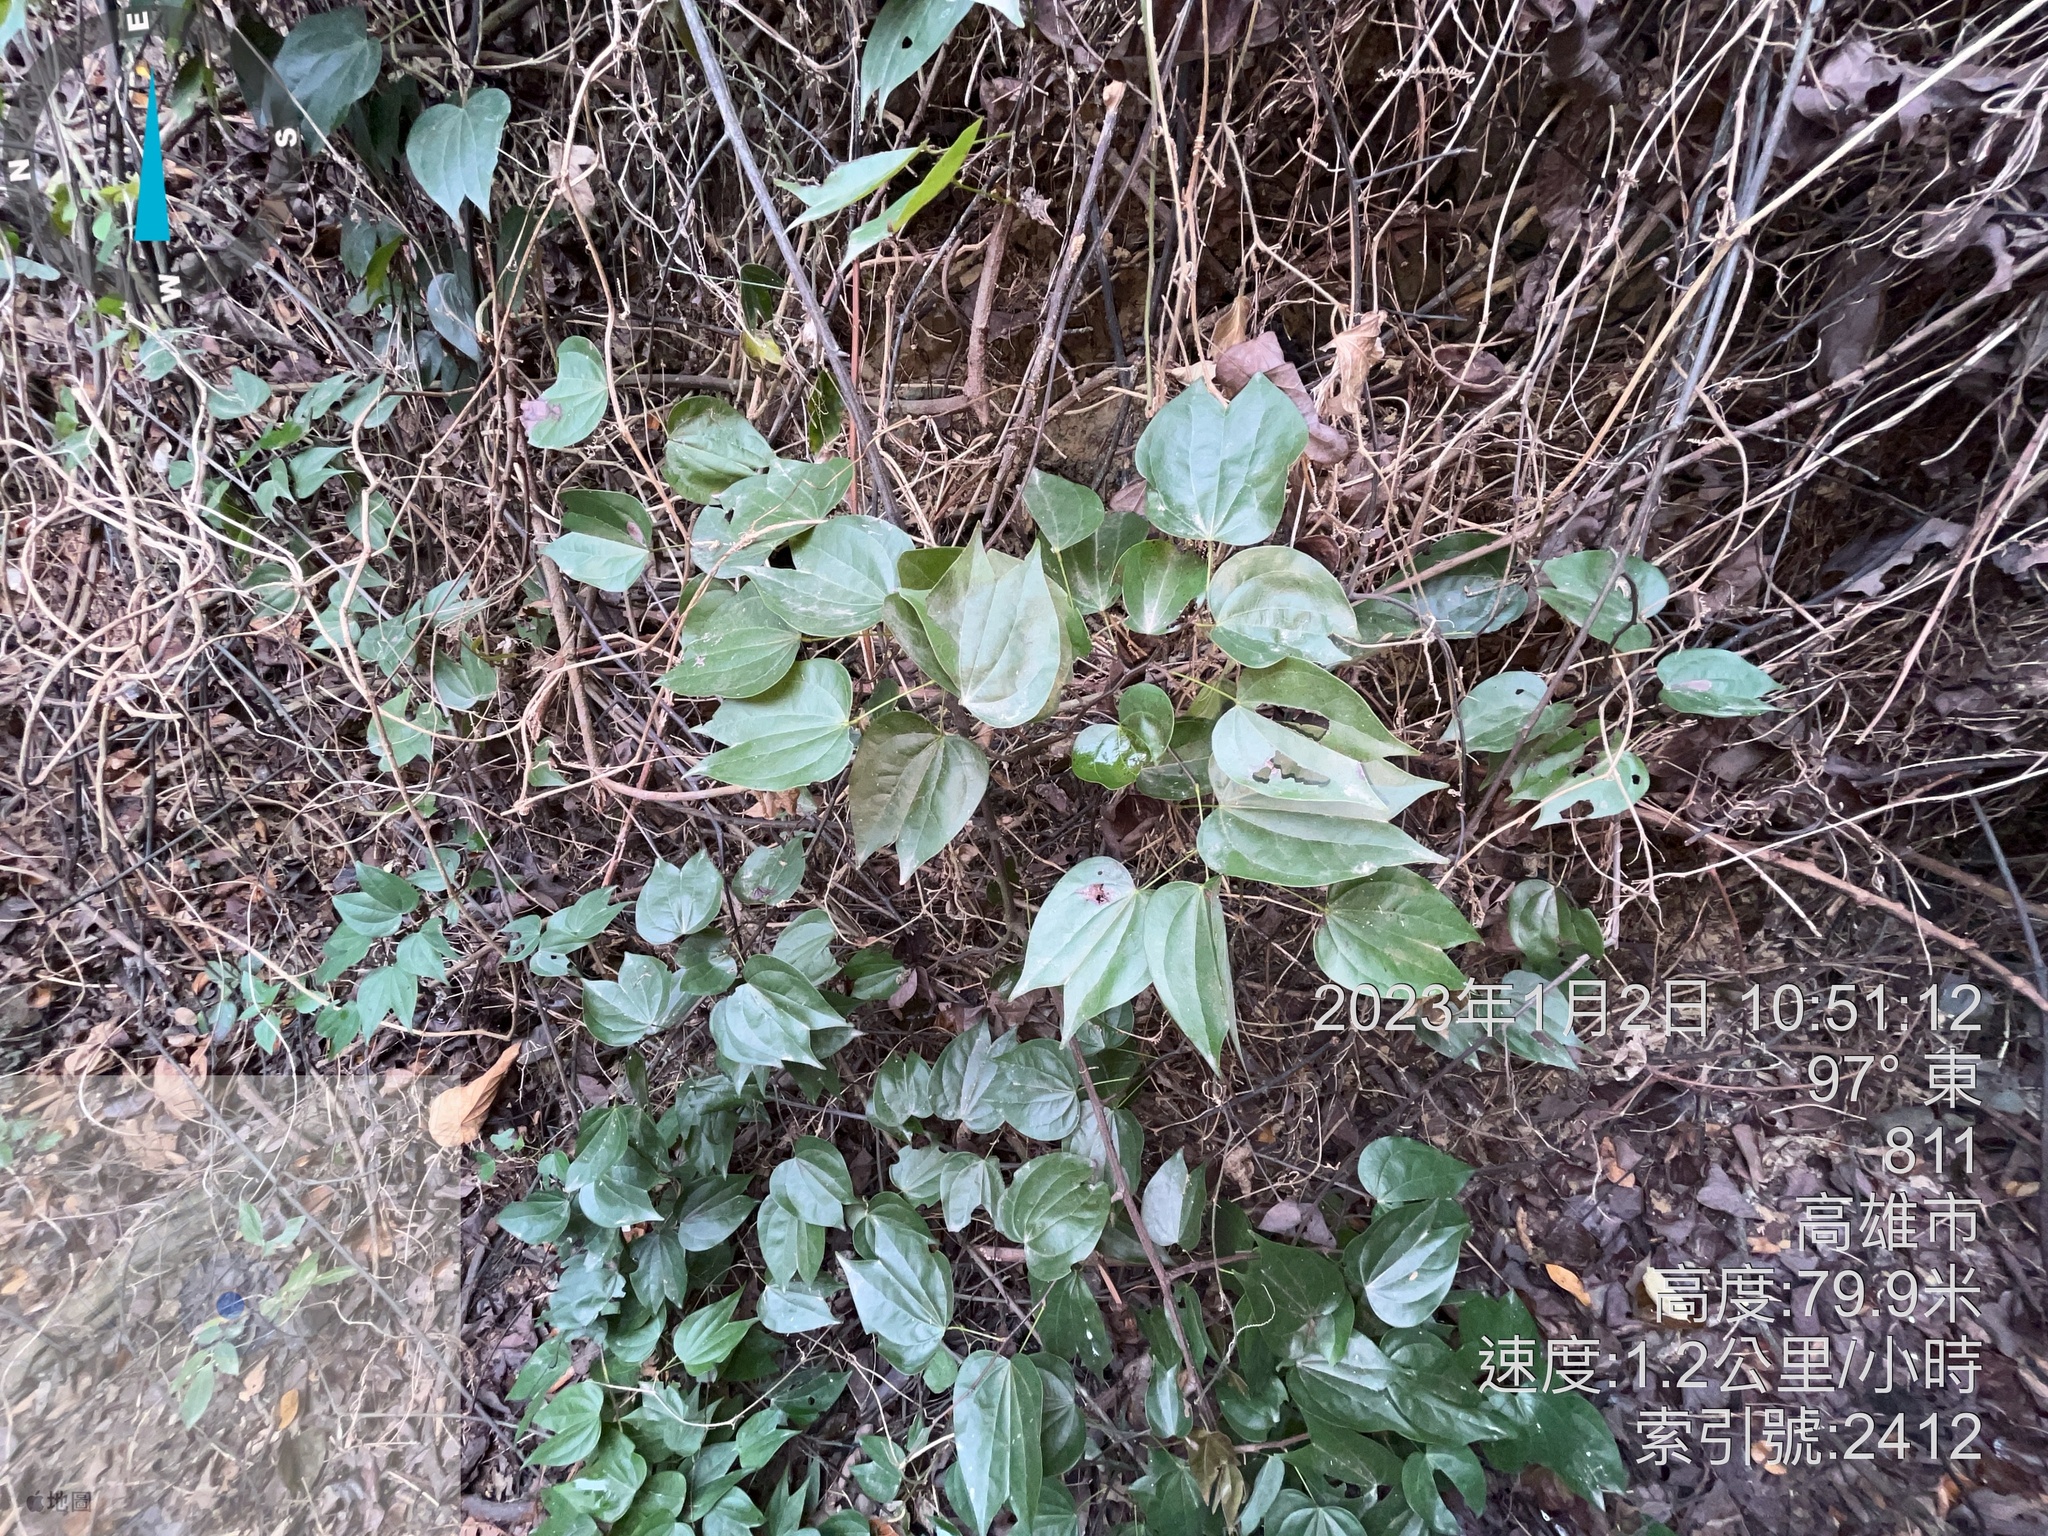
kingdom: Plantae
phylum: Tracheophyta
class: Magnoliopsida
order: Fabales
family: Fabaceae
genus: Phanera
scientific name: Phanera championii
